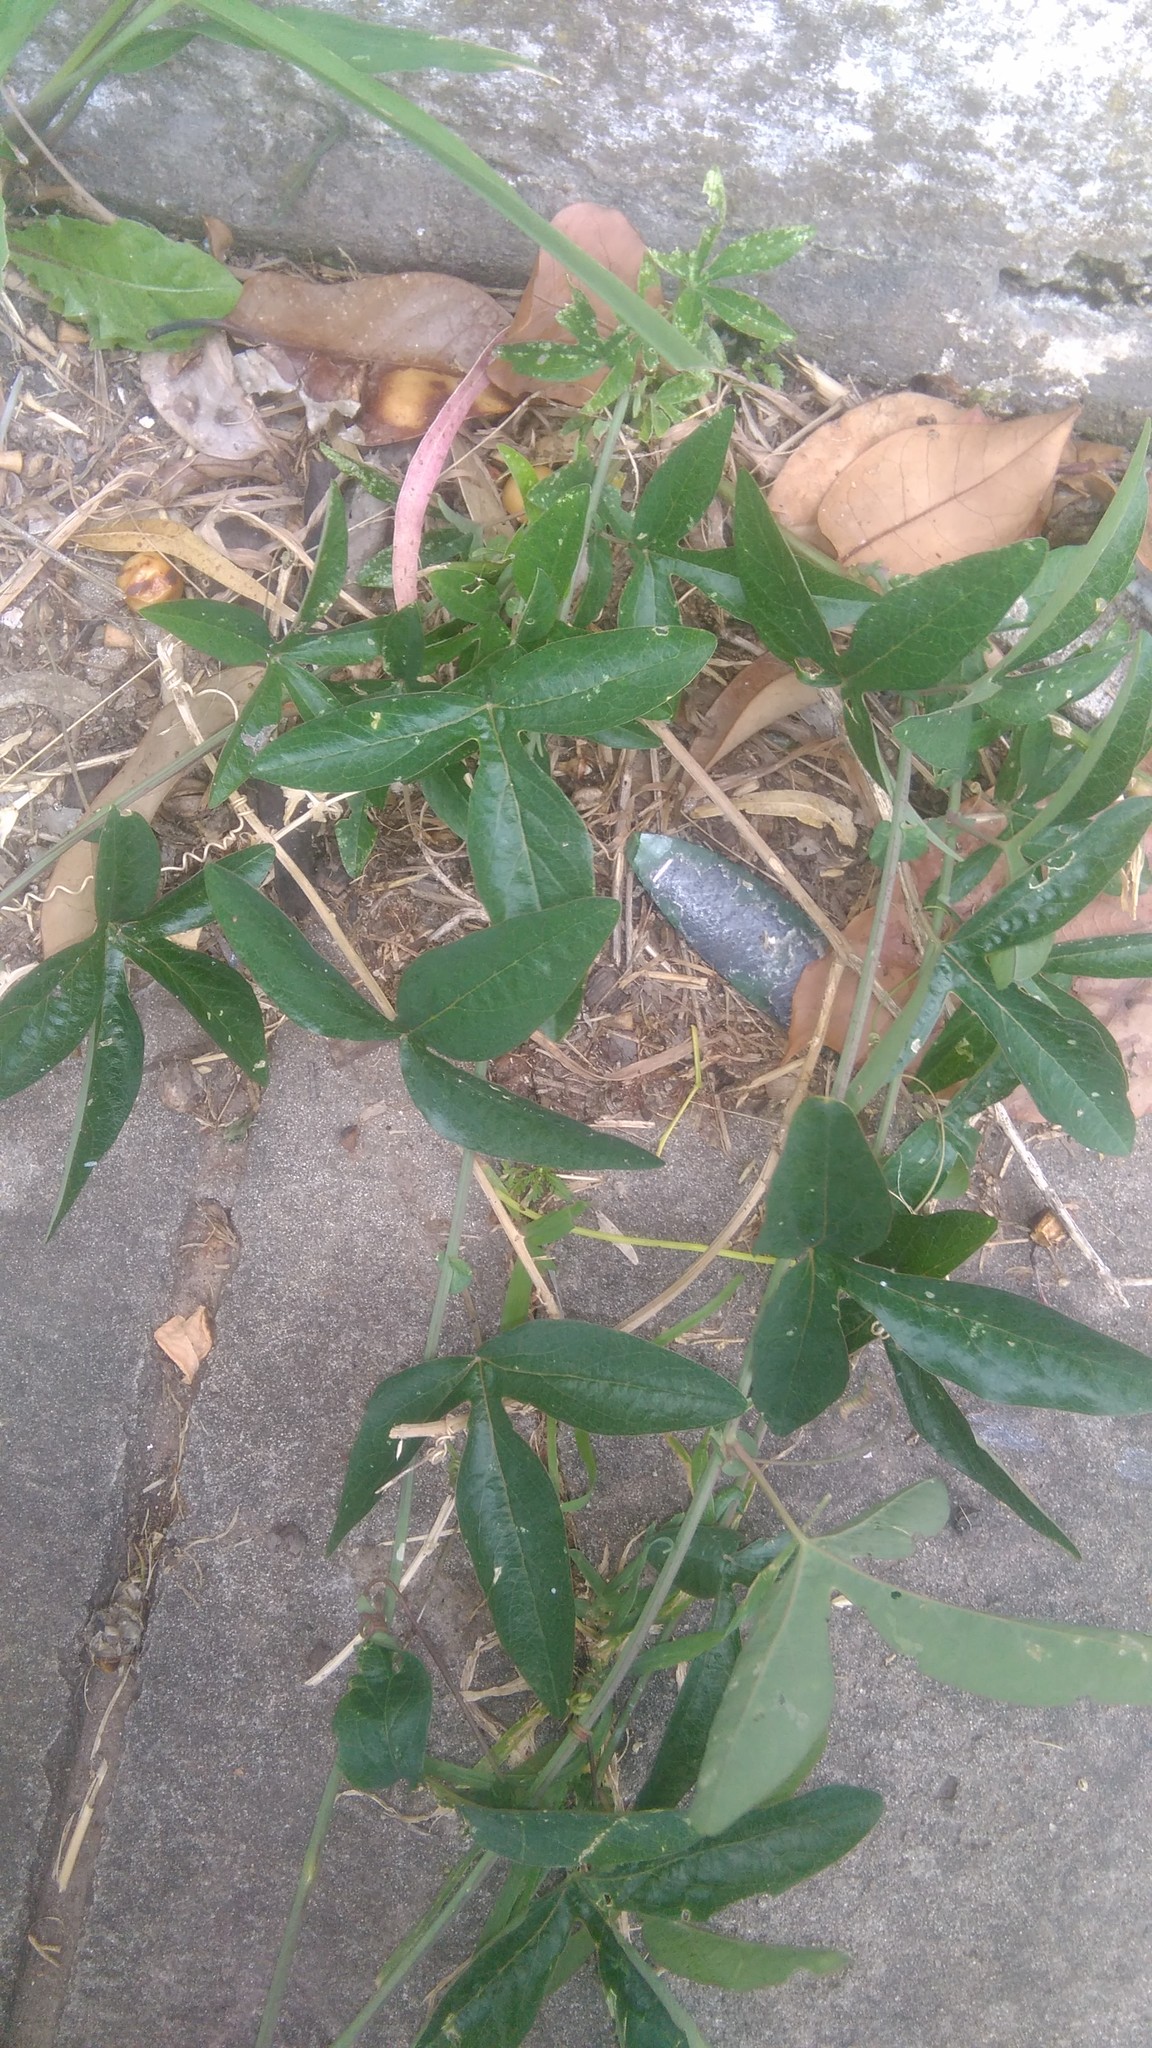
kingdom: Plantae
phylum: Tracheophyta
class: Magnoliopsida
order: Malpighiales
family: Passifloraceae
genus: Passiflora
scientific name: Passiflora caerulea
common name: Blue passionflower
